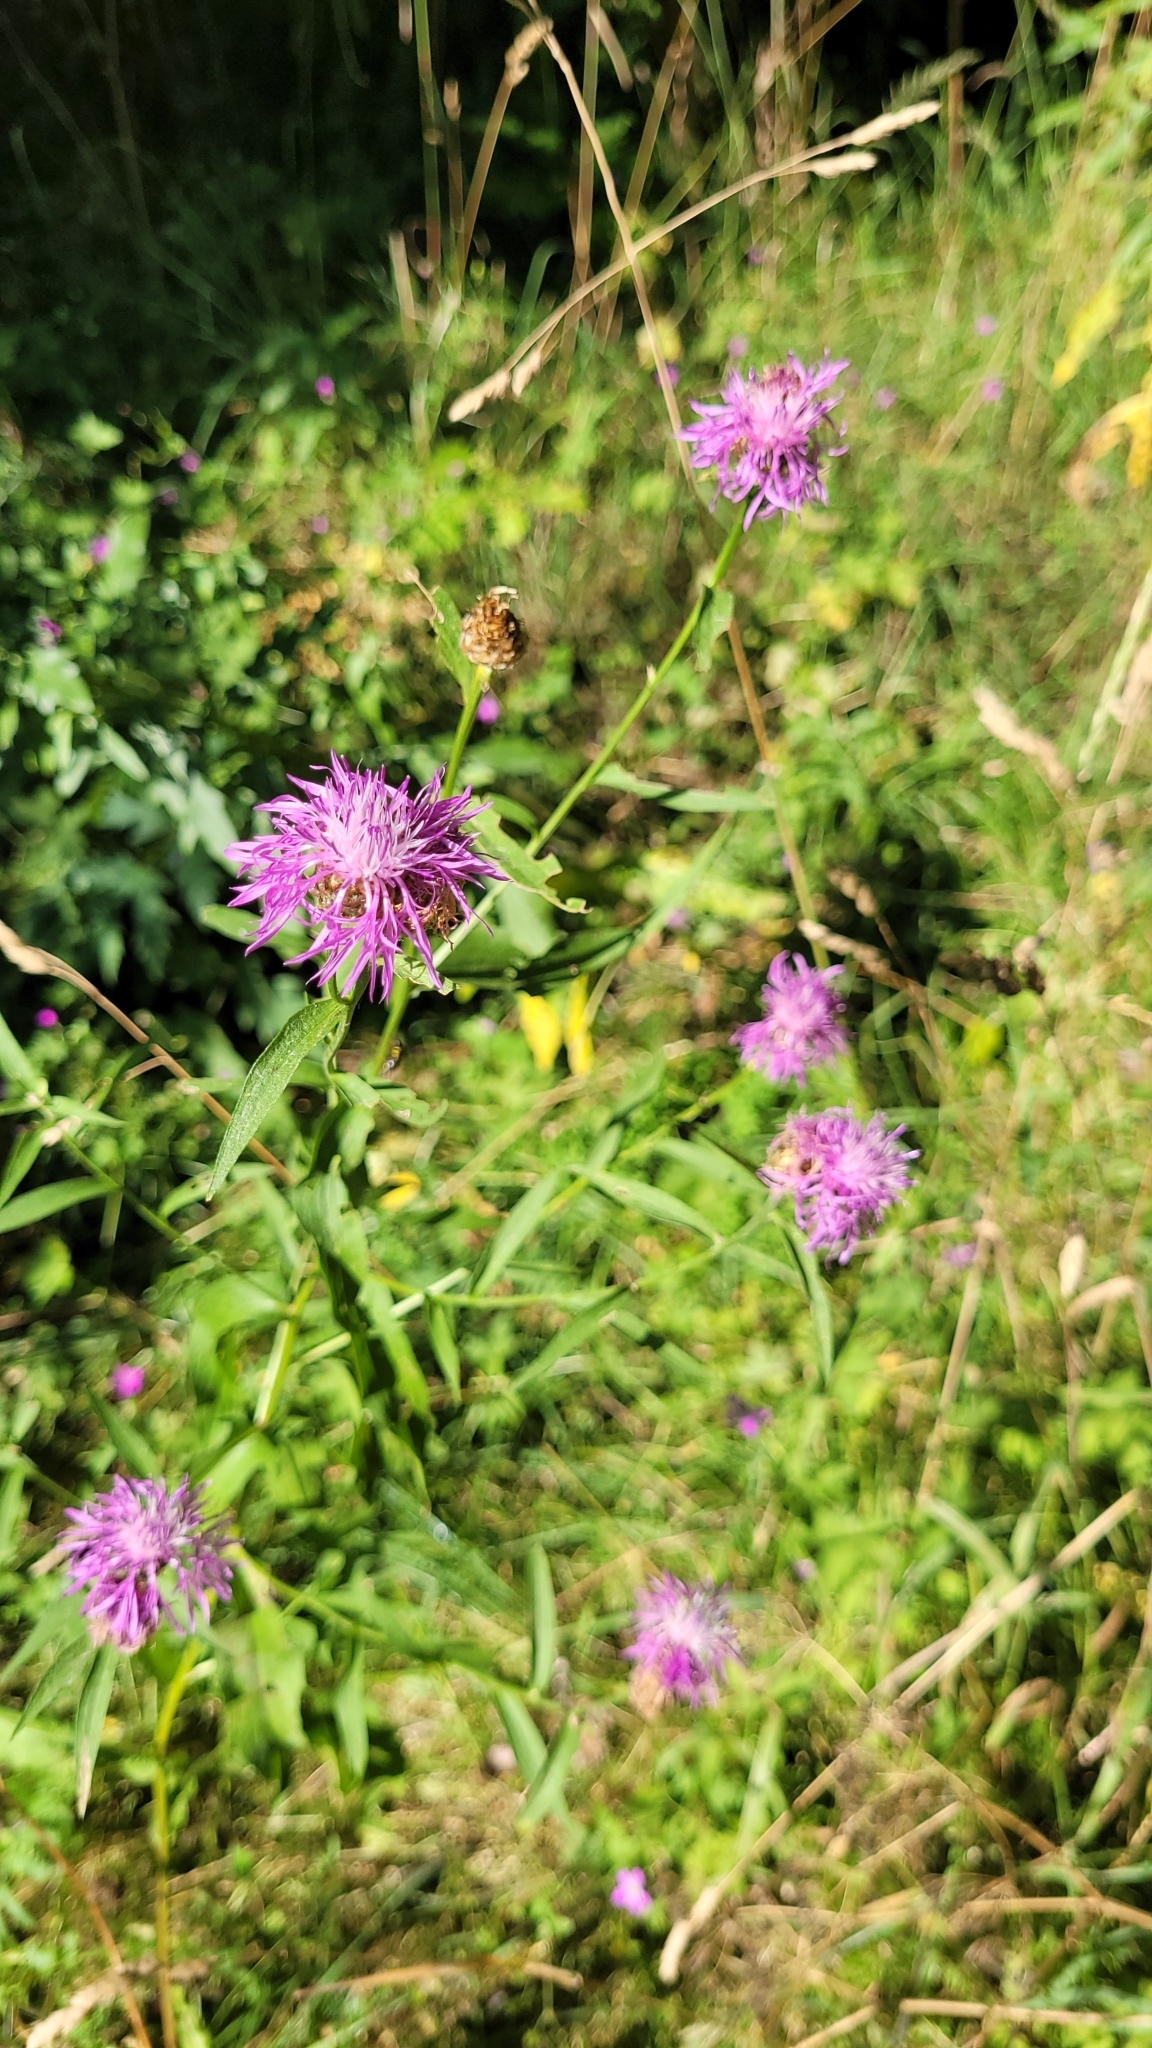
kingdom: Plantae
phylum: Tracheophyta
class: Magnoliopsida
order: Asterales
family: Asteraceae
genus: Centaurea
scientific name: Centaurea jacea
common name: Brown knapweed
